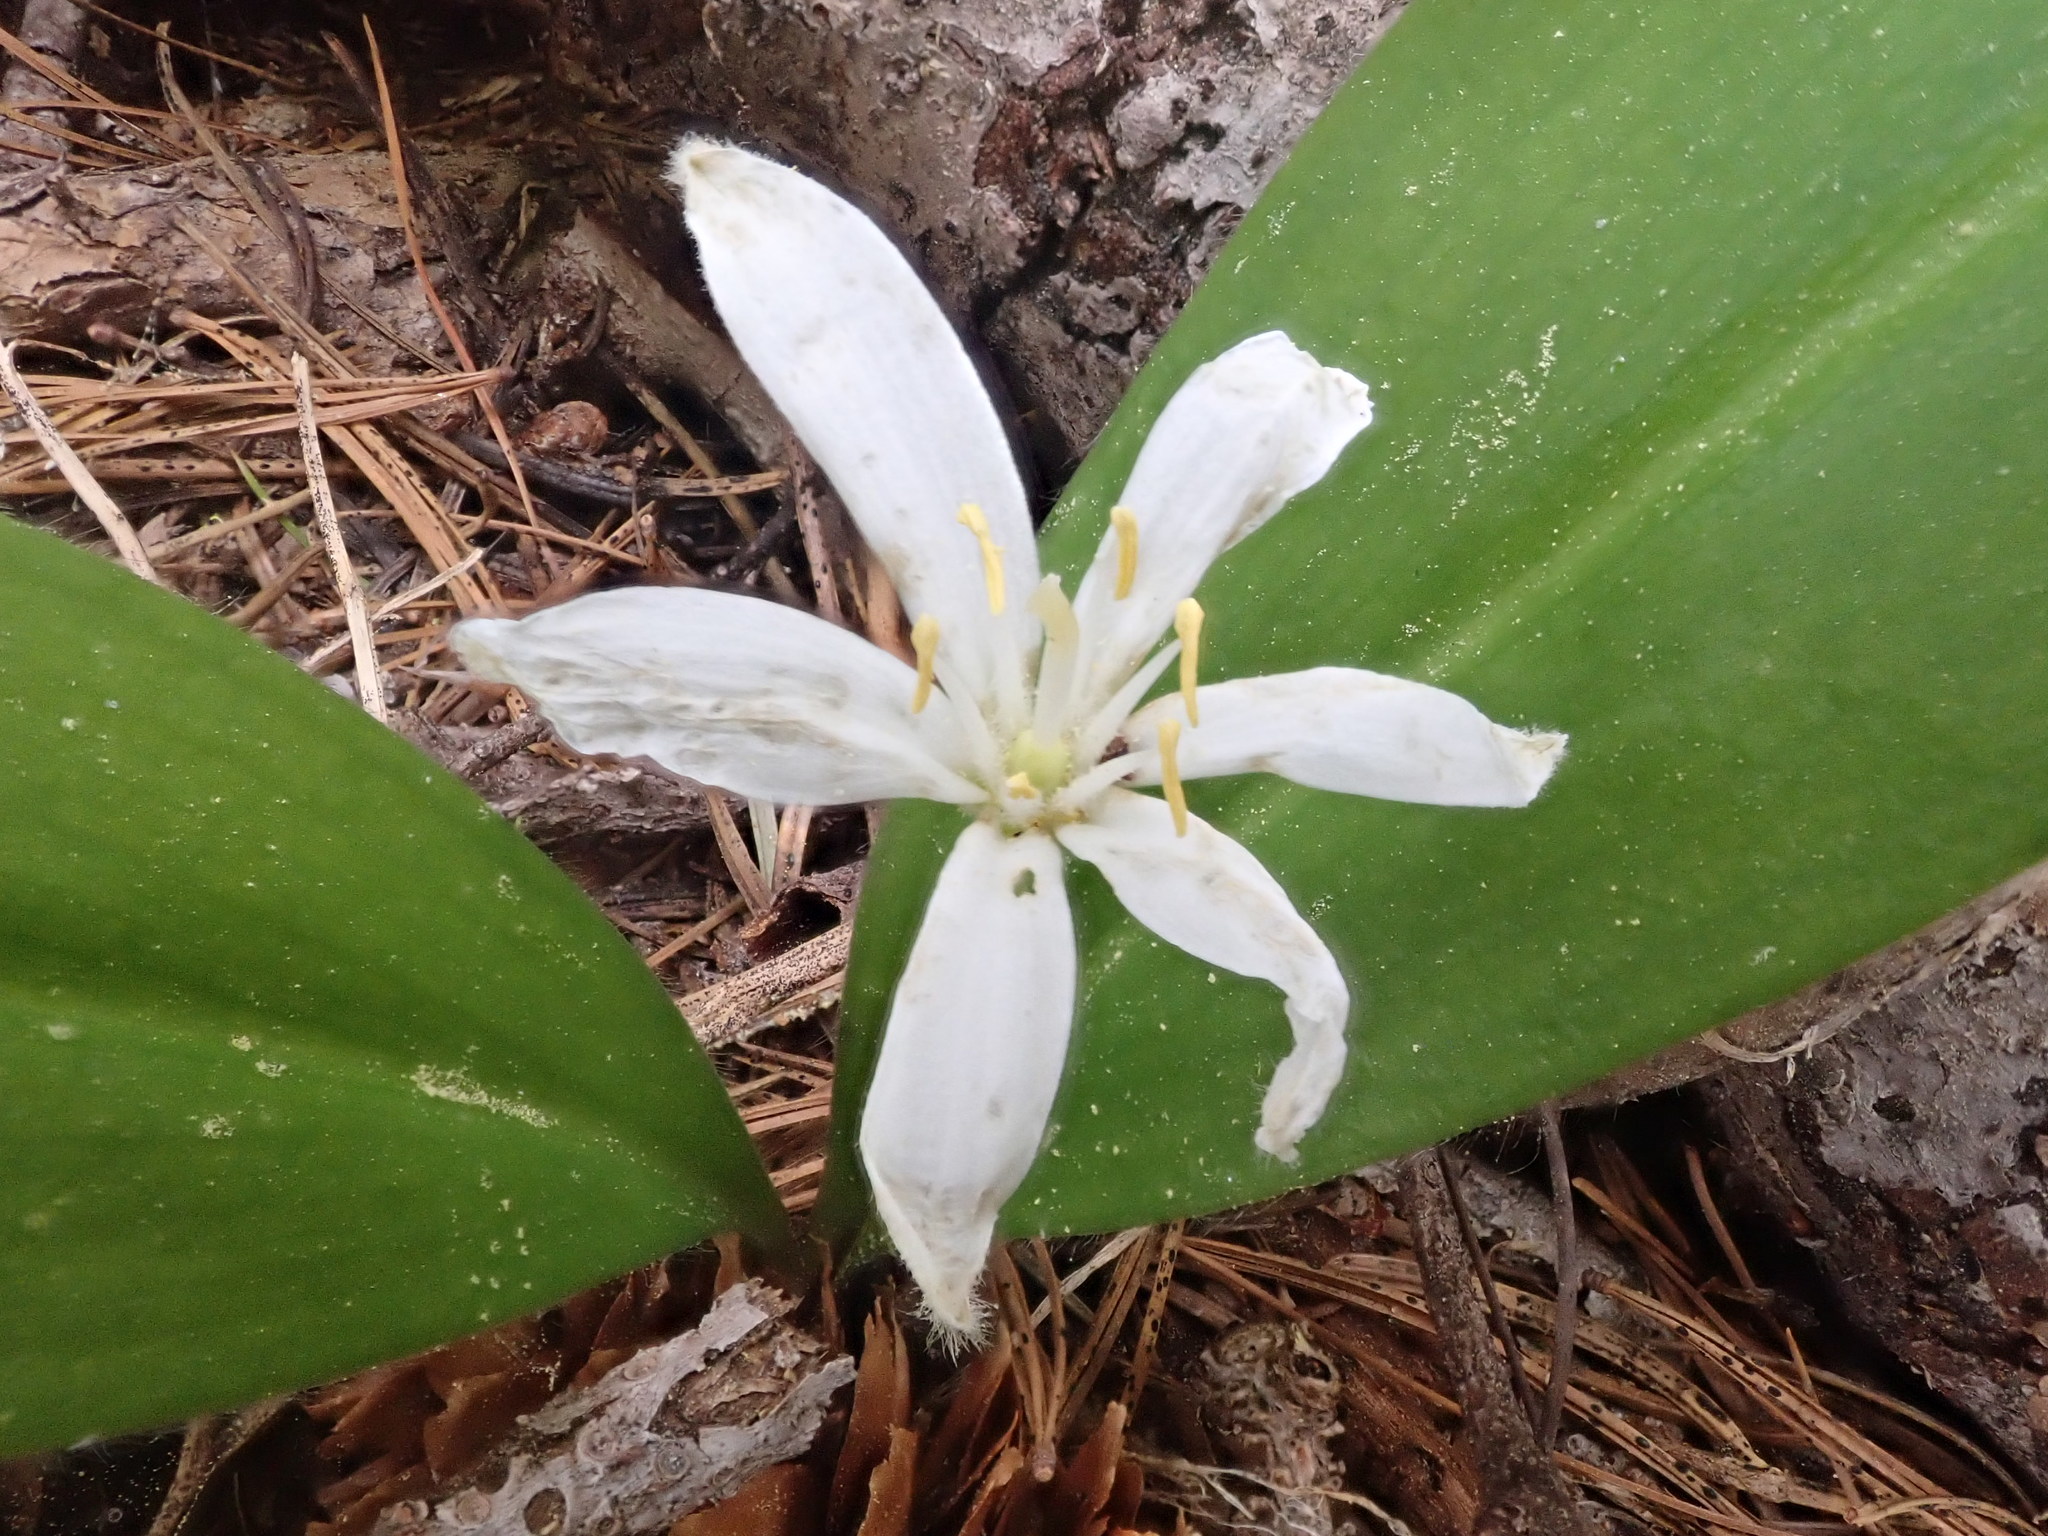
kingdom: Plantae
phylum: Tracheophyta
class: Liliopsida
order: Liliales
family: Liliaceae
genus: Clintonia
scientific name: Clintonia uniflora
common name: Queen's cup
